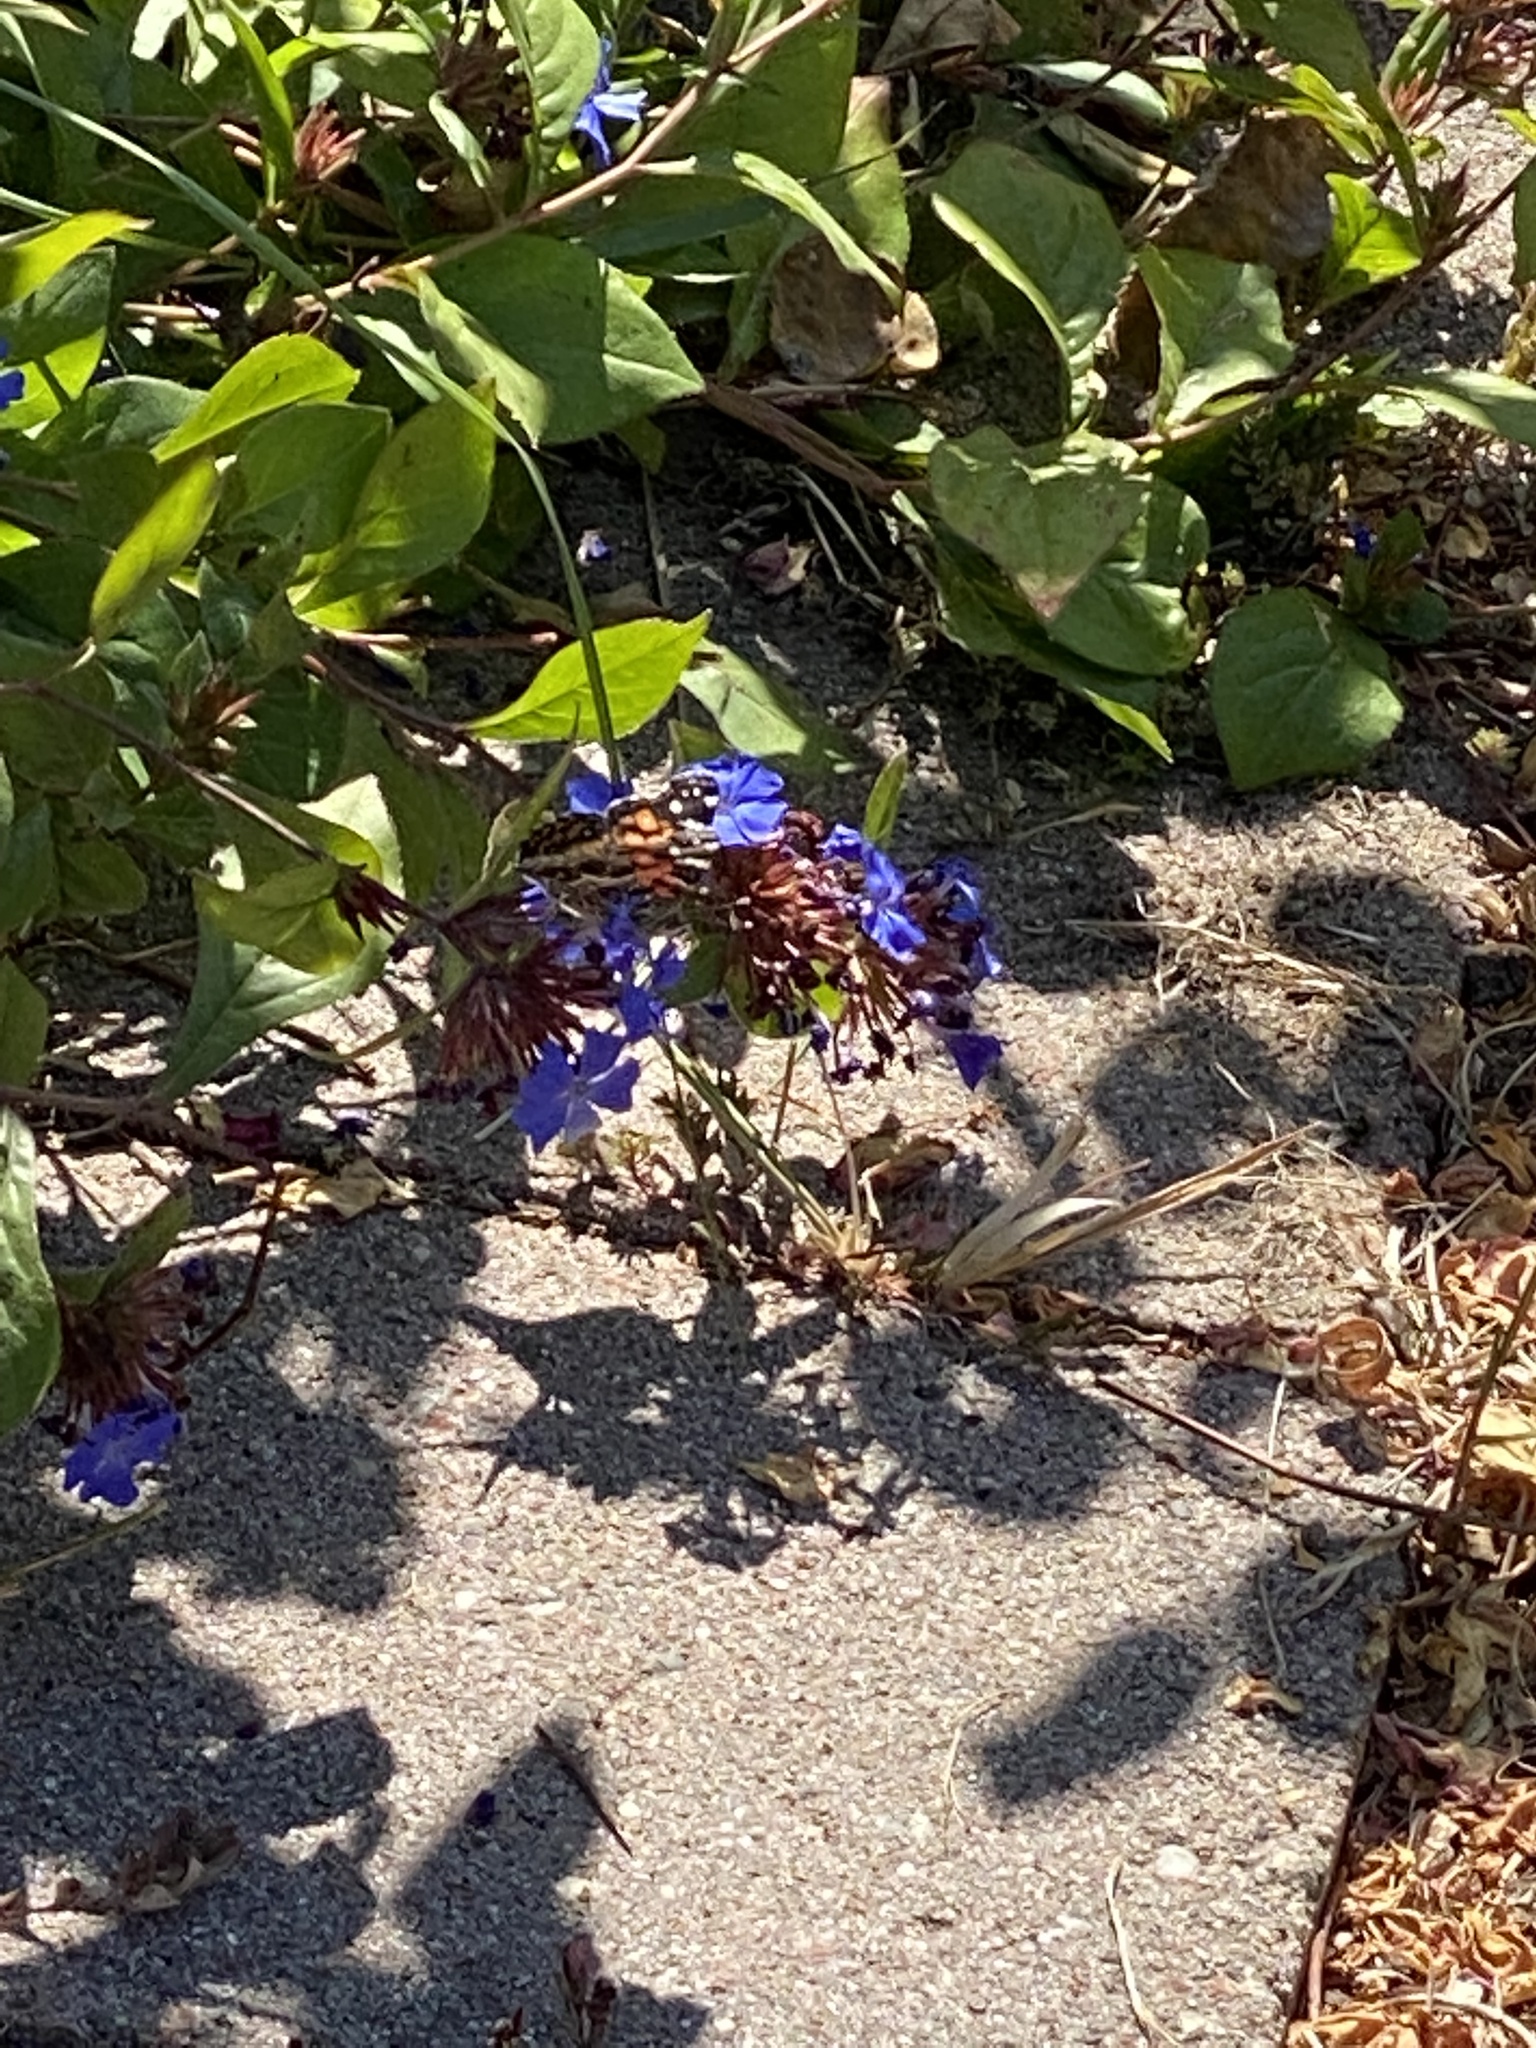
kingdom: Animalia
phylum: Arthropoda
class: Insecta
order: Lepidoptera
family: Nymphalidae
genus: Vanessa
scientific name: Vanessa virginiensis
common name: American lady
